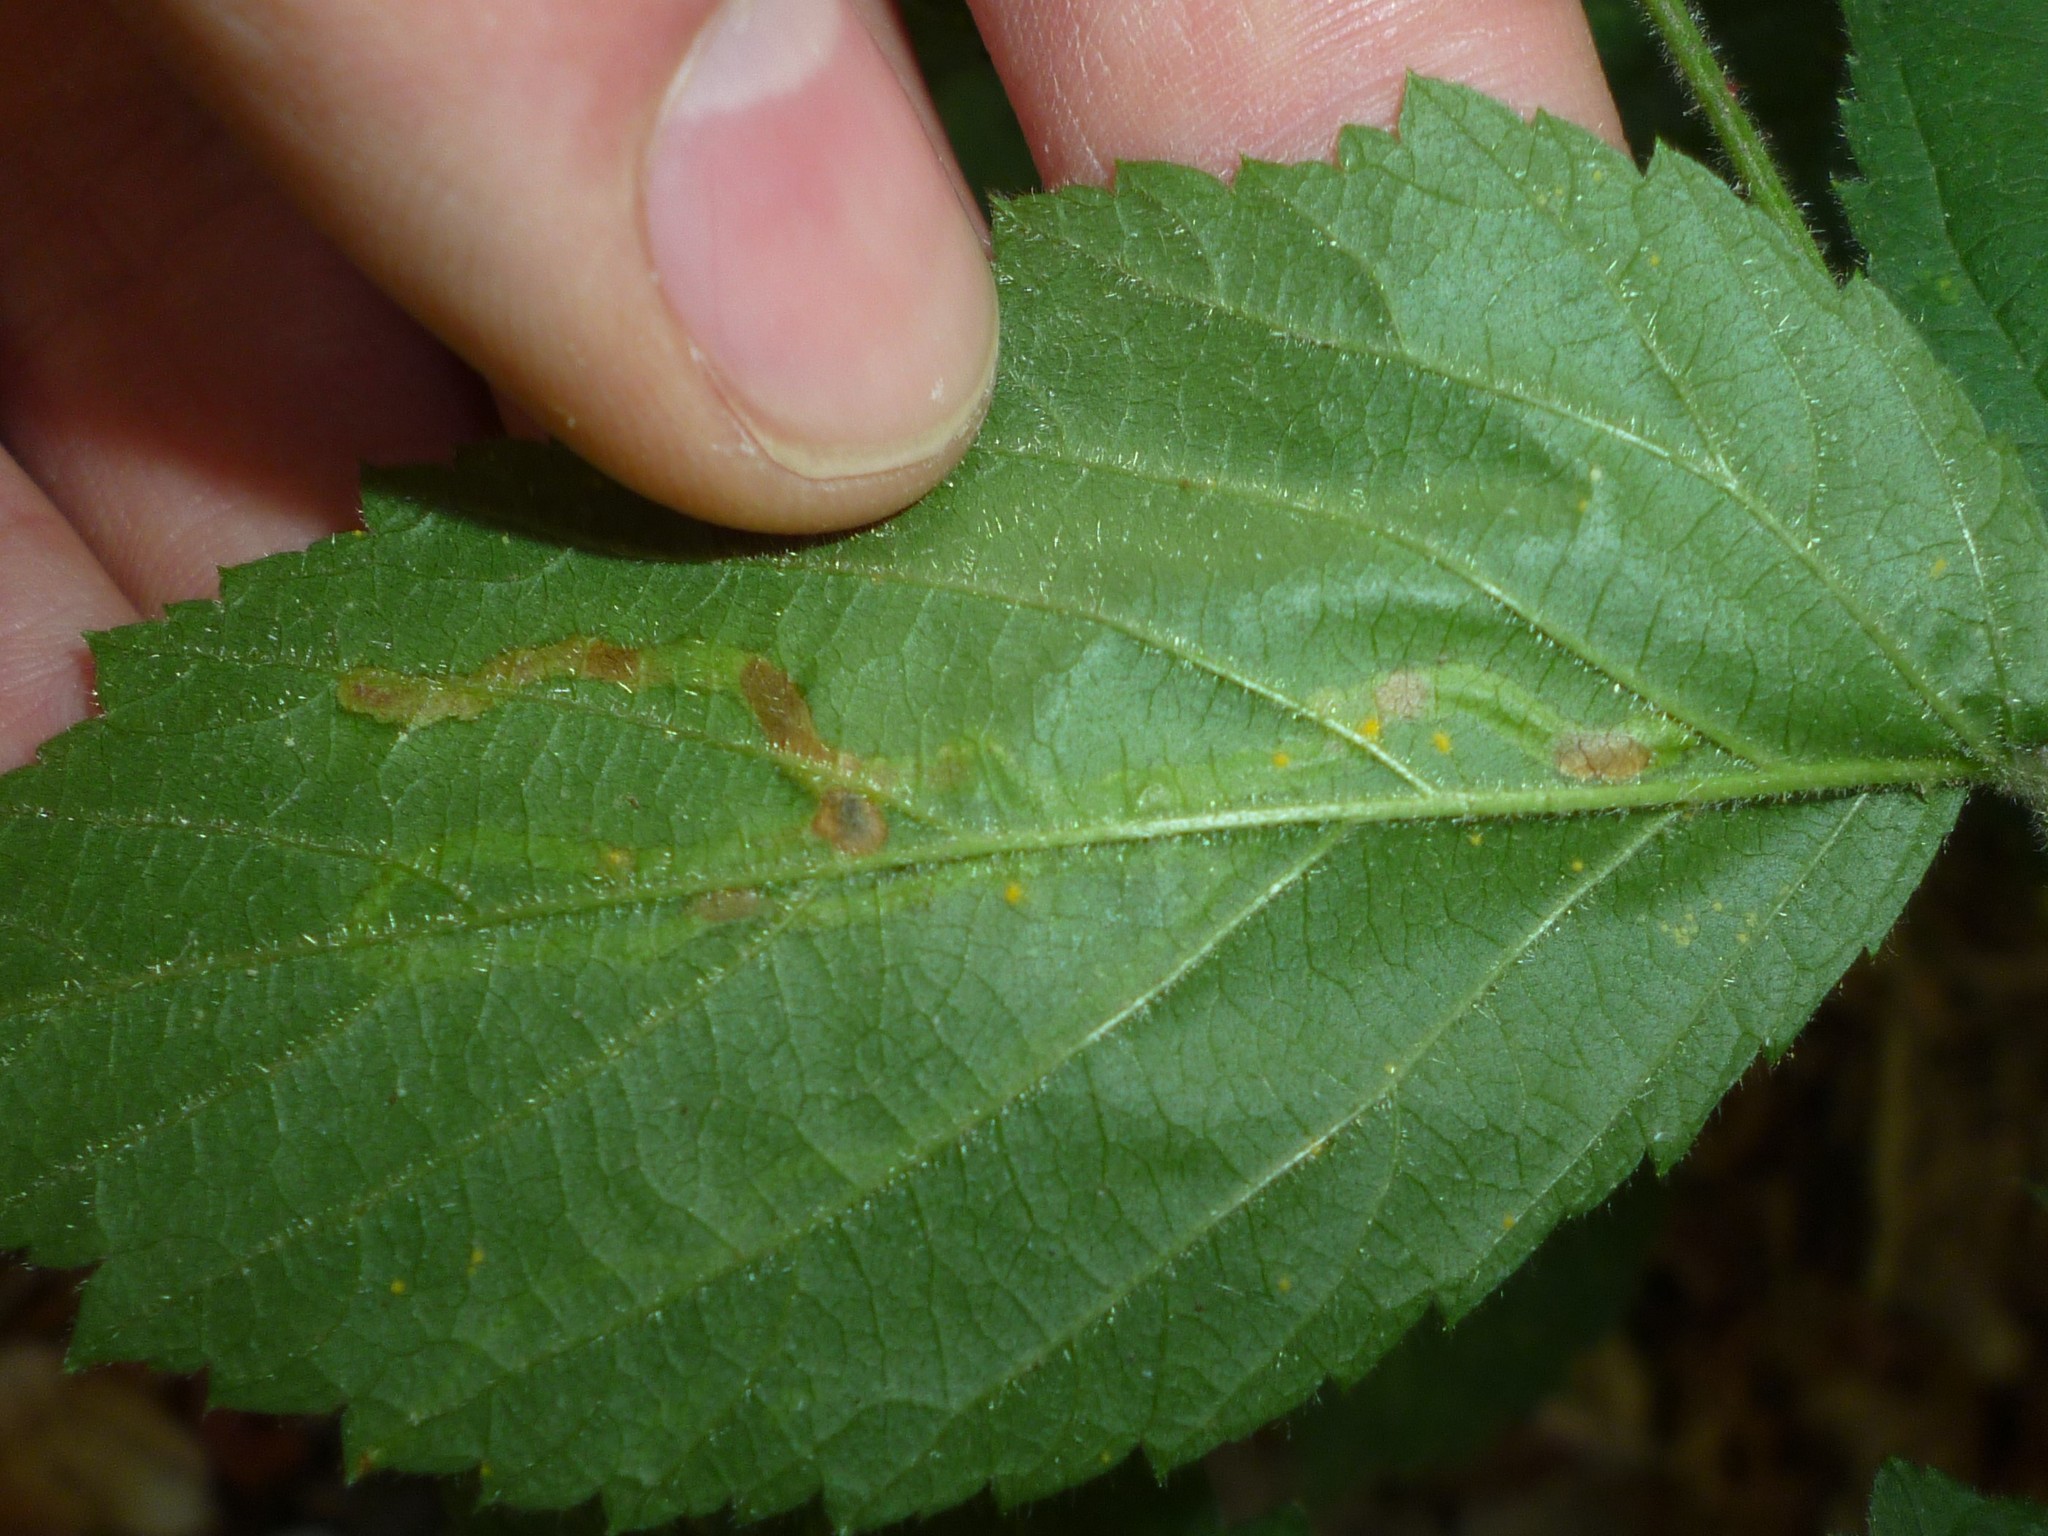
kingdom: Animalia
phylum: Arthropoda
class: Insecta
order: Diptera
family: Agromyzidae
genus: Agromyza
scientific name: Agromyza vockerothi
